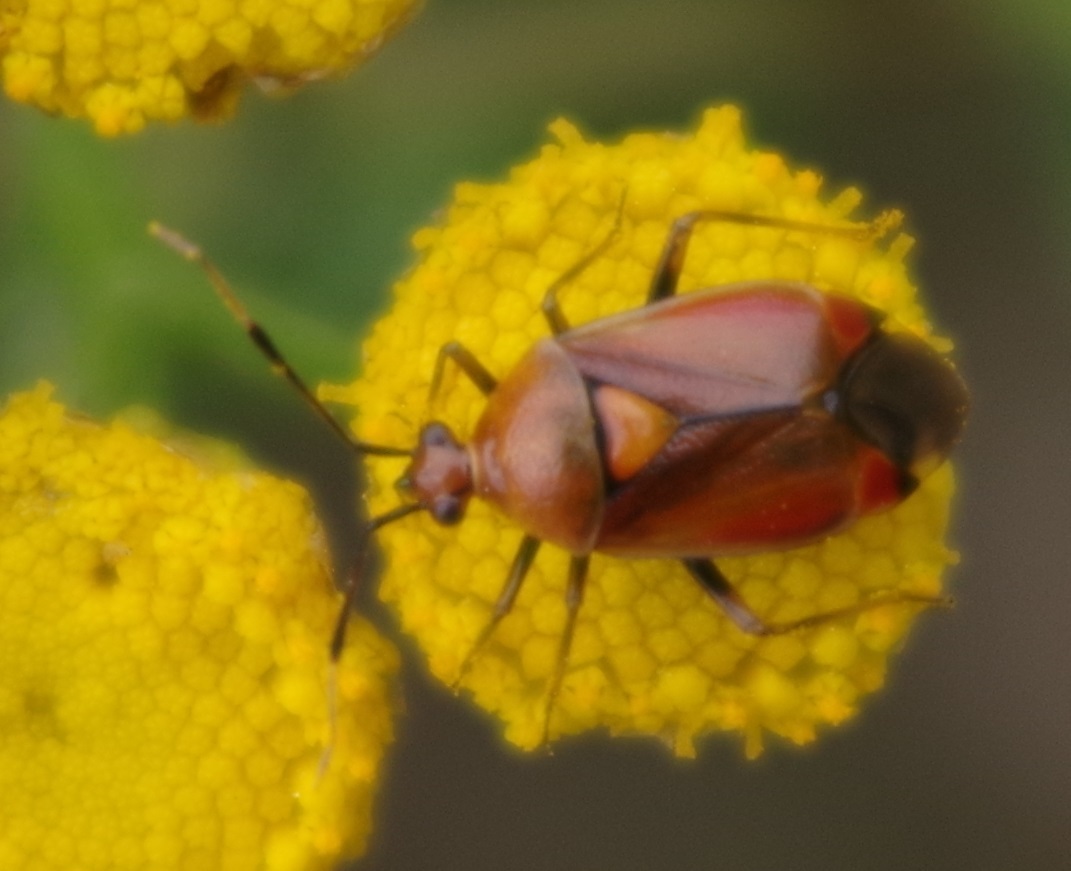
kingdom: Animalia
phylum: Arthropoda
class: Insecta
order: Hemiptera
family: Miridae
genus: Deraeocoris
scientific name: Deraeocoris ruber
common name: Plant bug
